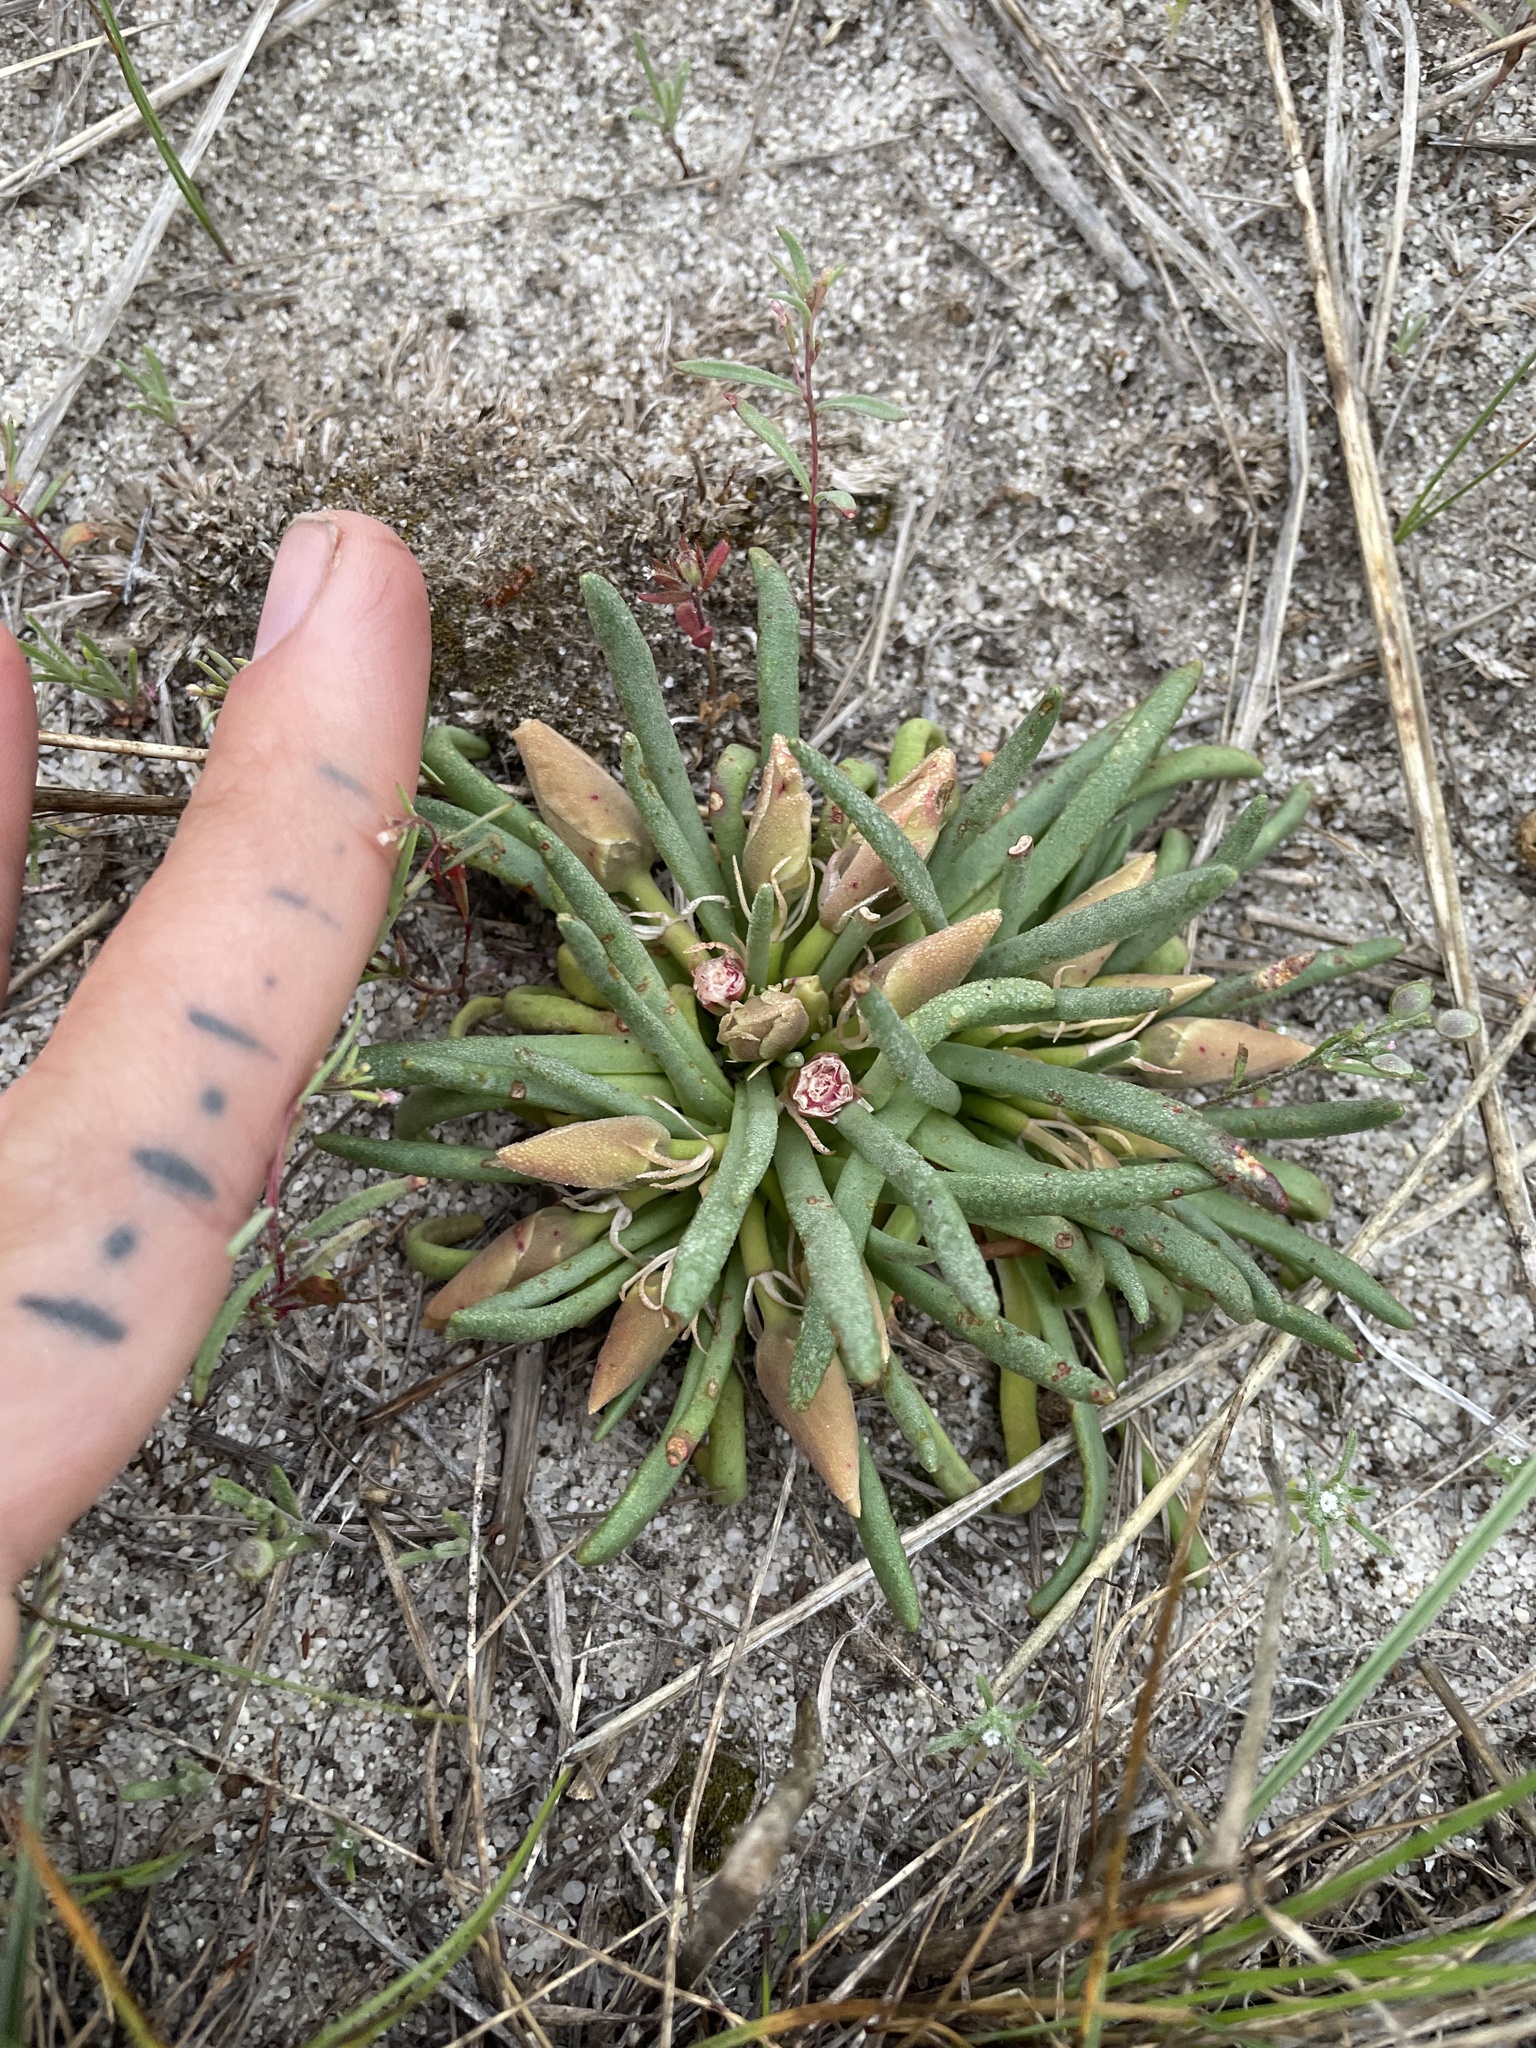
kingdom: Plantae
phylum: Tracheophyta
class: Magnoliopsida
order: Caryophyllales
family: Montiaceae
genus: Lewisia
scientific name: Lewisia rediviva
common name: Bitter-root
